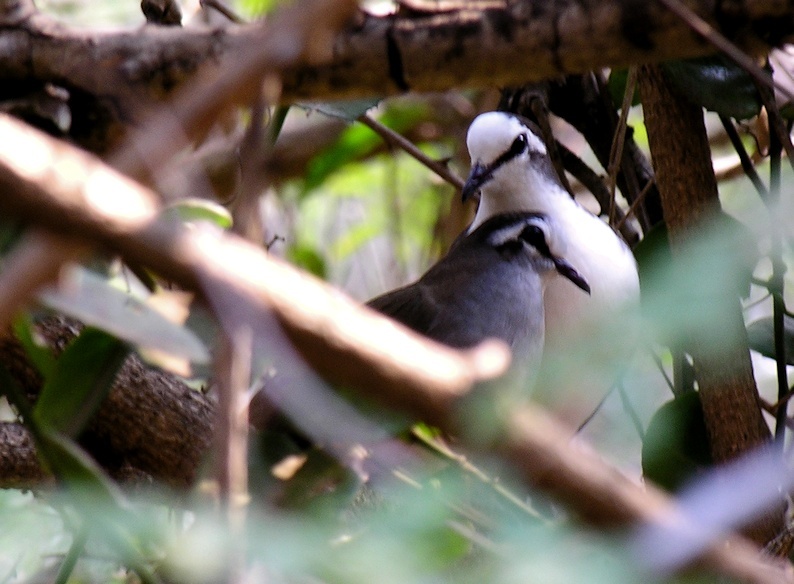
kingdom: Animalia
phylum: Chordata
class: Aves
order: Columbiformes
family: Columbidae
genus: Turtur
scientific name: Turtur tympanistria
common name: Tambourine dove
